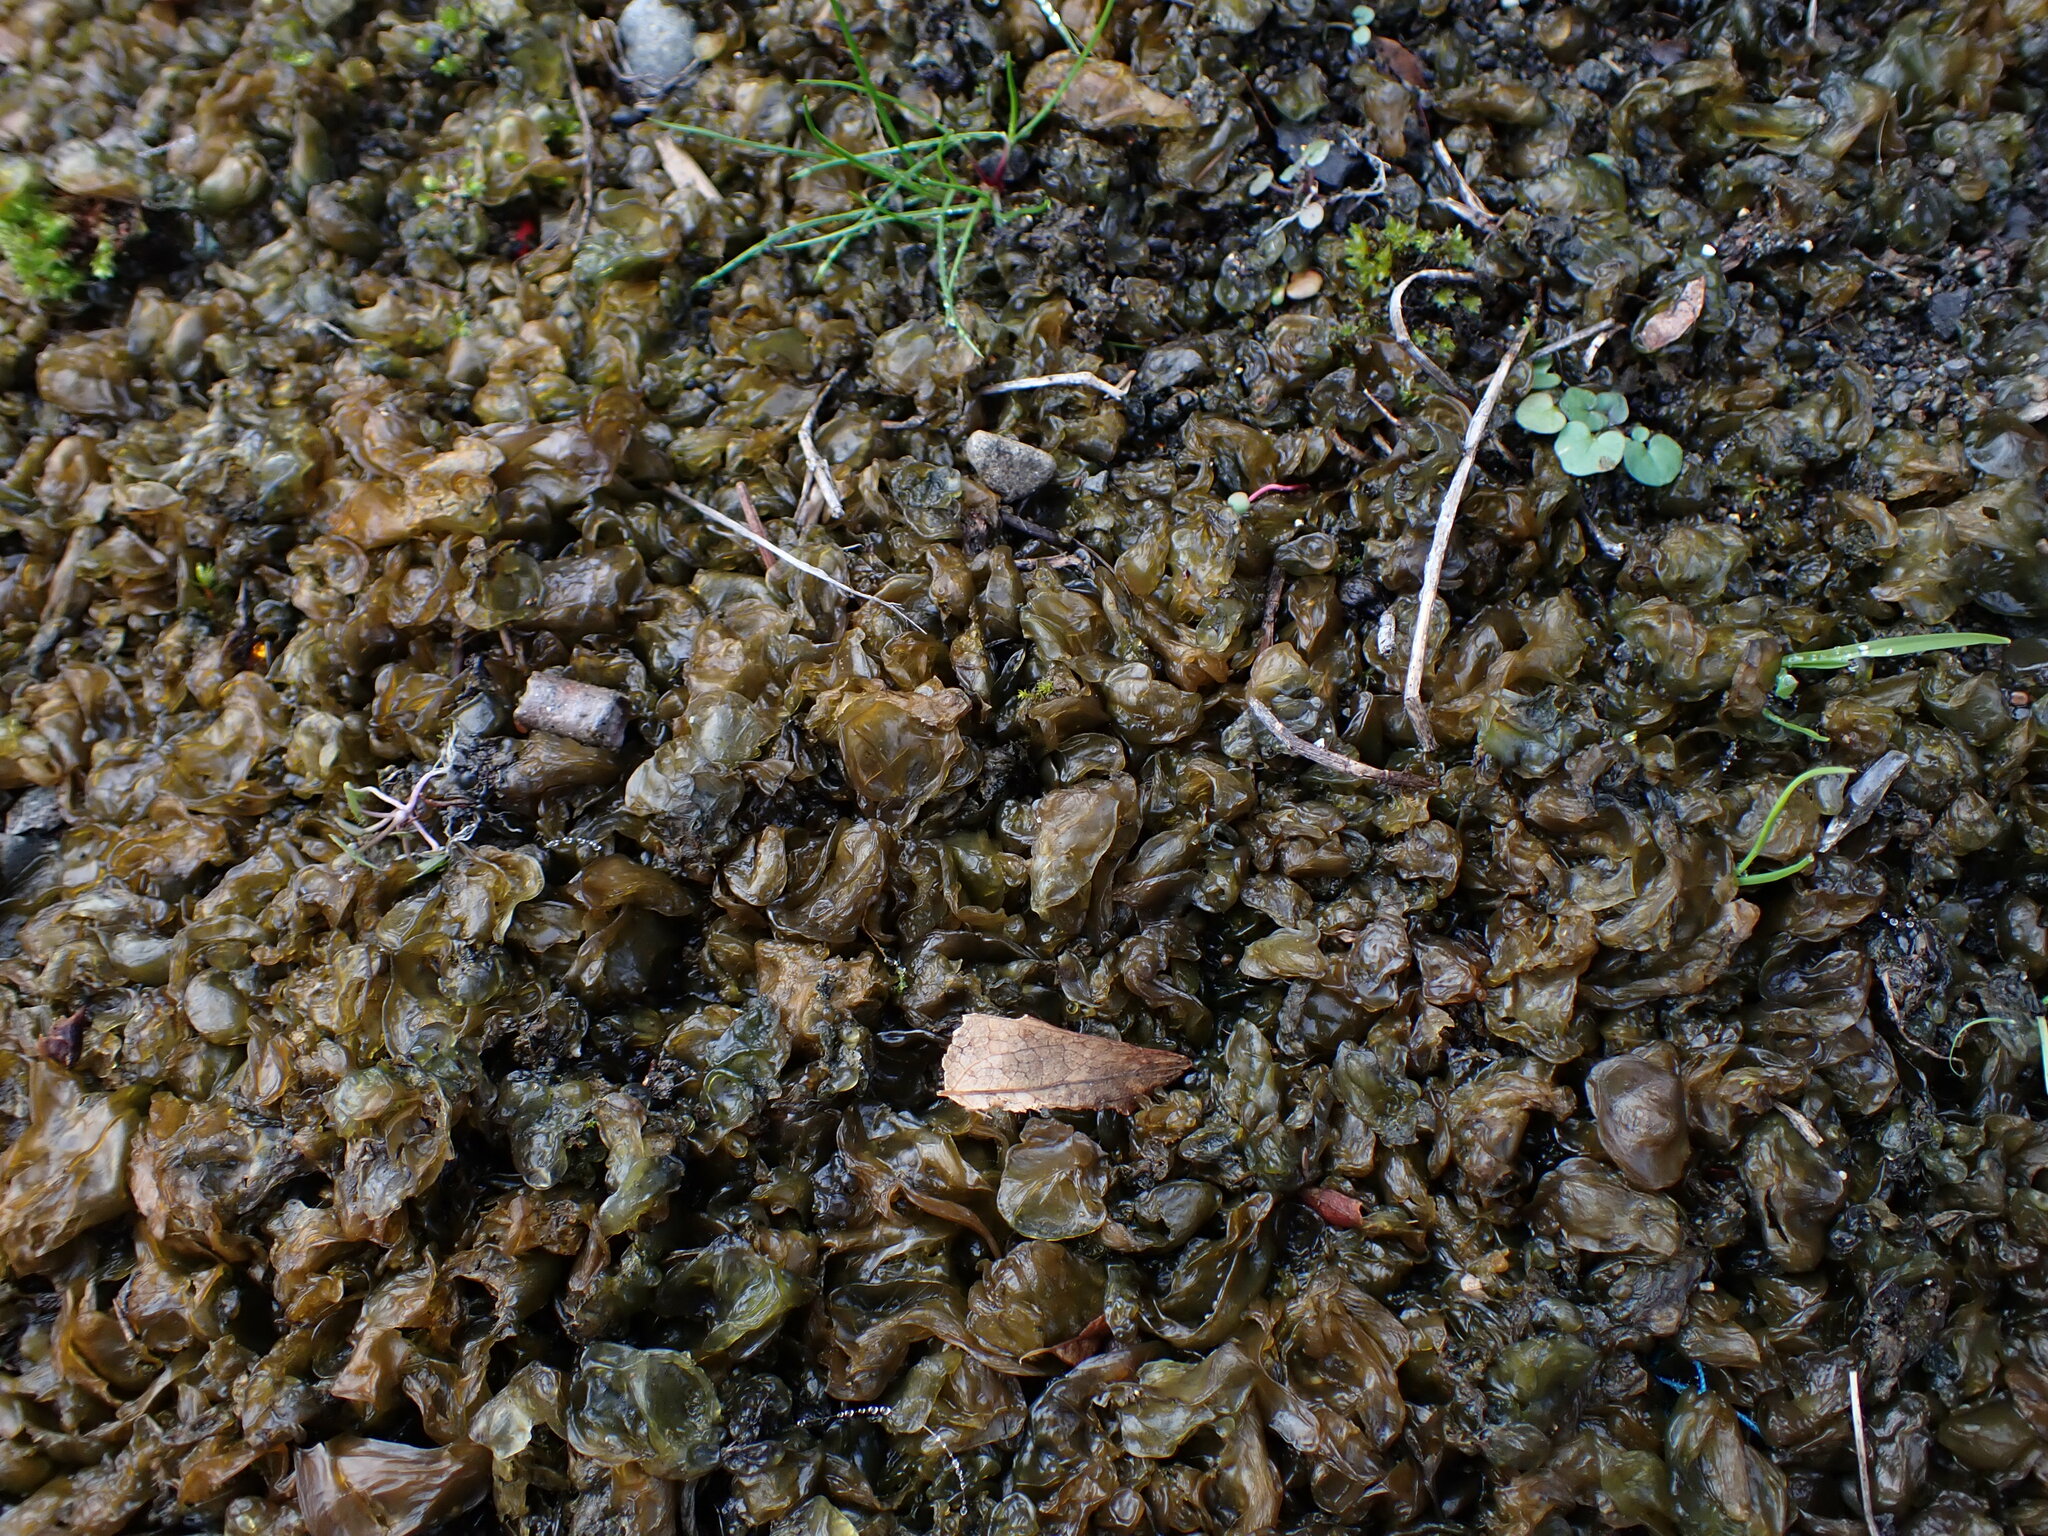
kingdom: Bacteria
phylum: Cyanobacteria
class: Cyanobacteriia
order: Cyanobacteriales
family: Nostocaceae
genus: Nostoc
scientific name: Nostoc commune
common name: Star jelly
